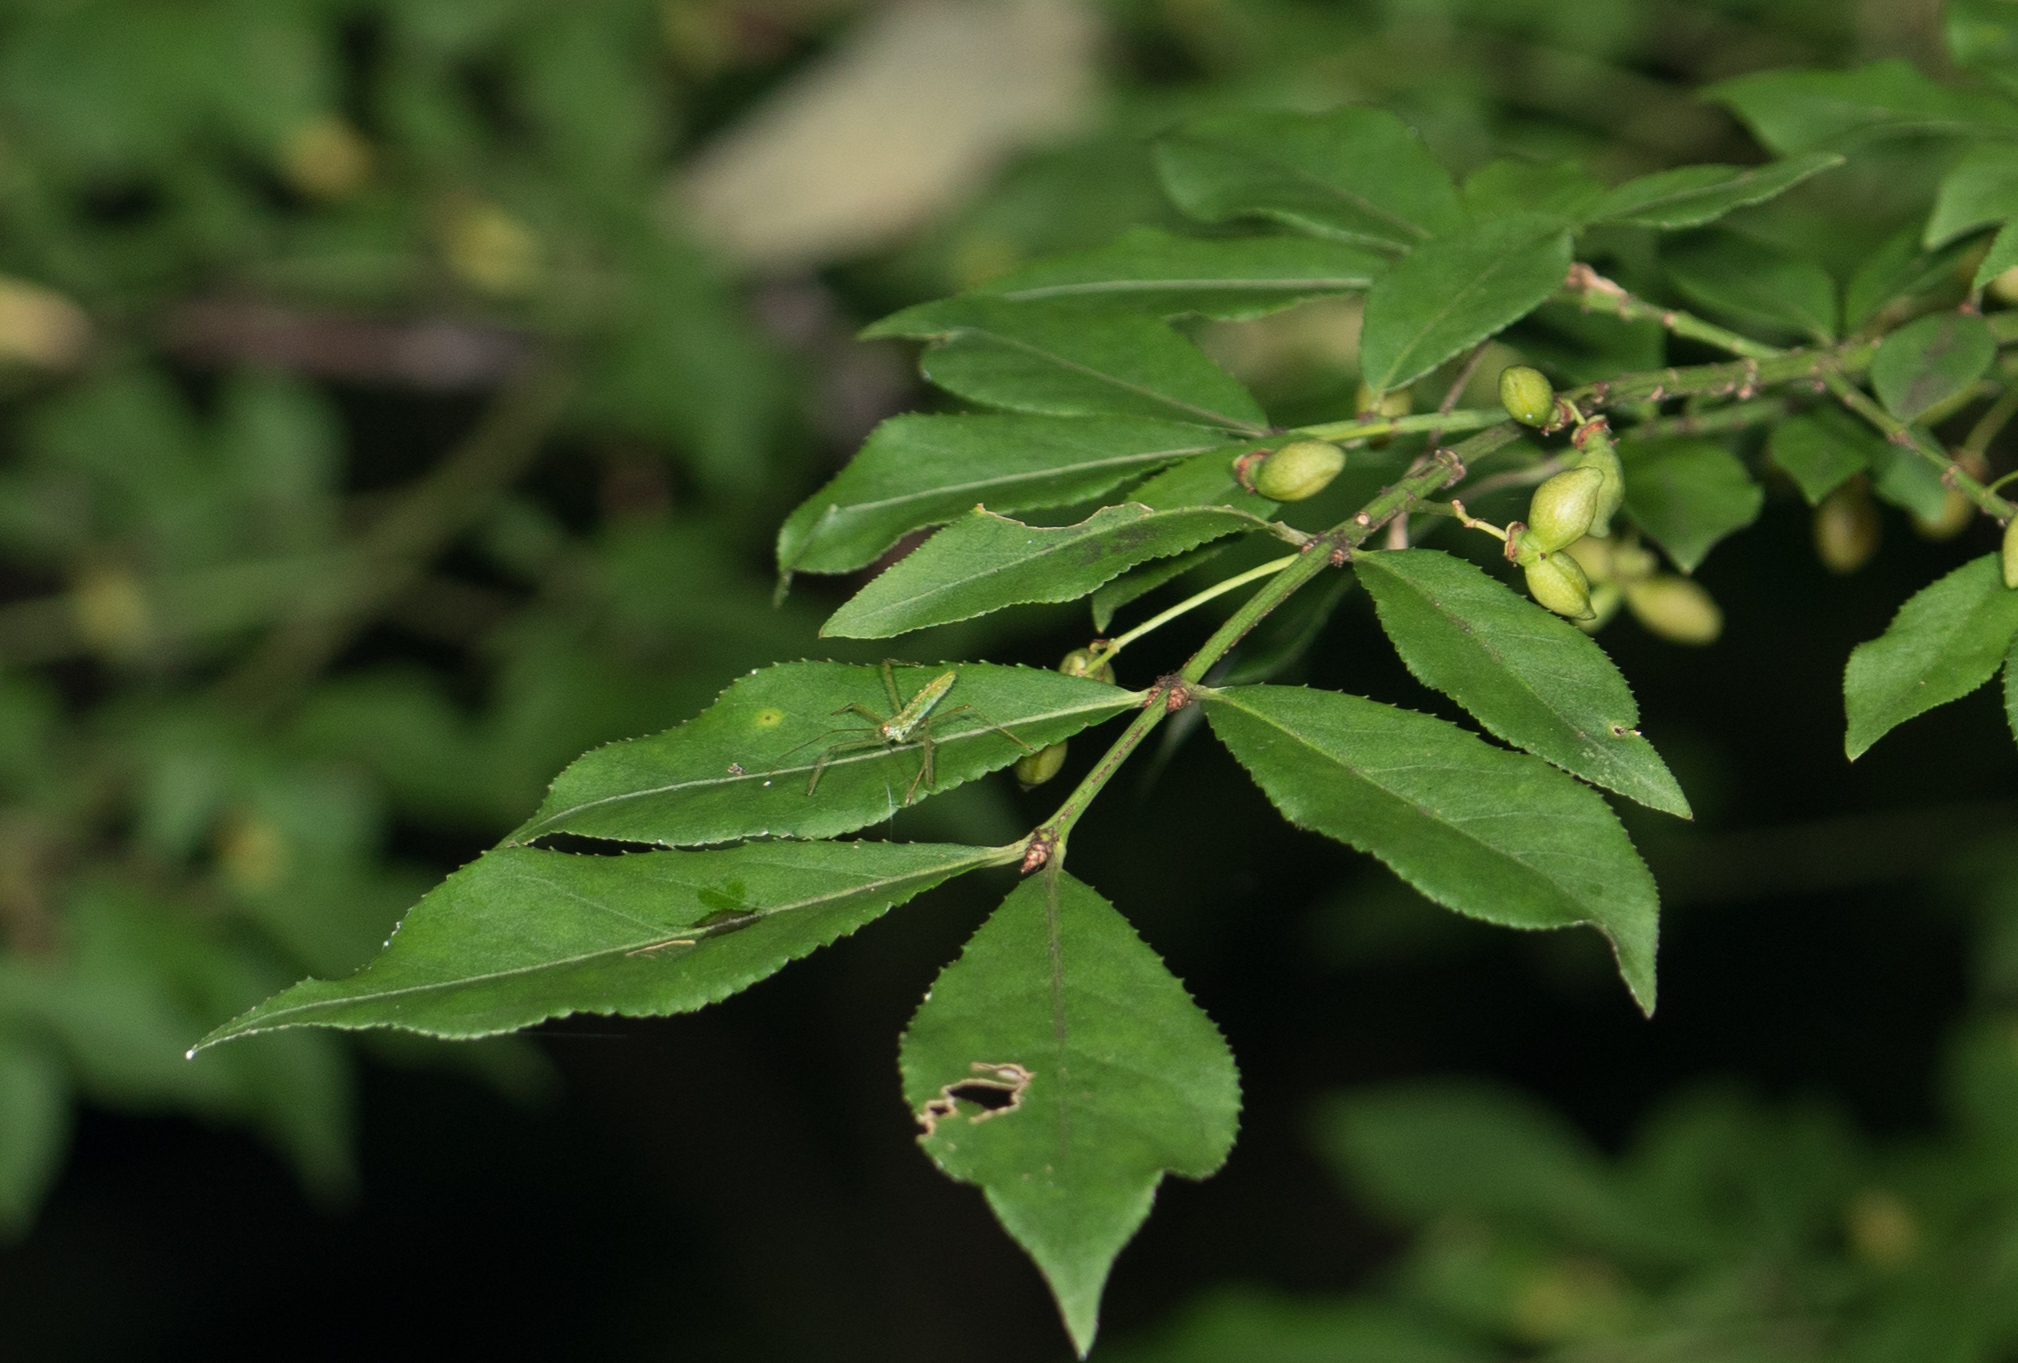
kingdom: Plantae
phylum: Tracheophyta
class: Magnoliopsida
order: Celastrales
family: Celastraceae
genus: Euonymus
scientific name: Euonymus alatus
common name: Winged euonymus
